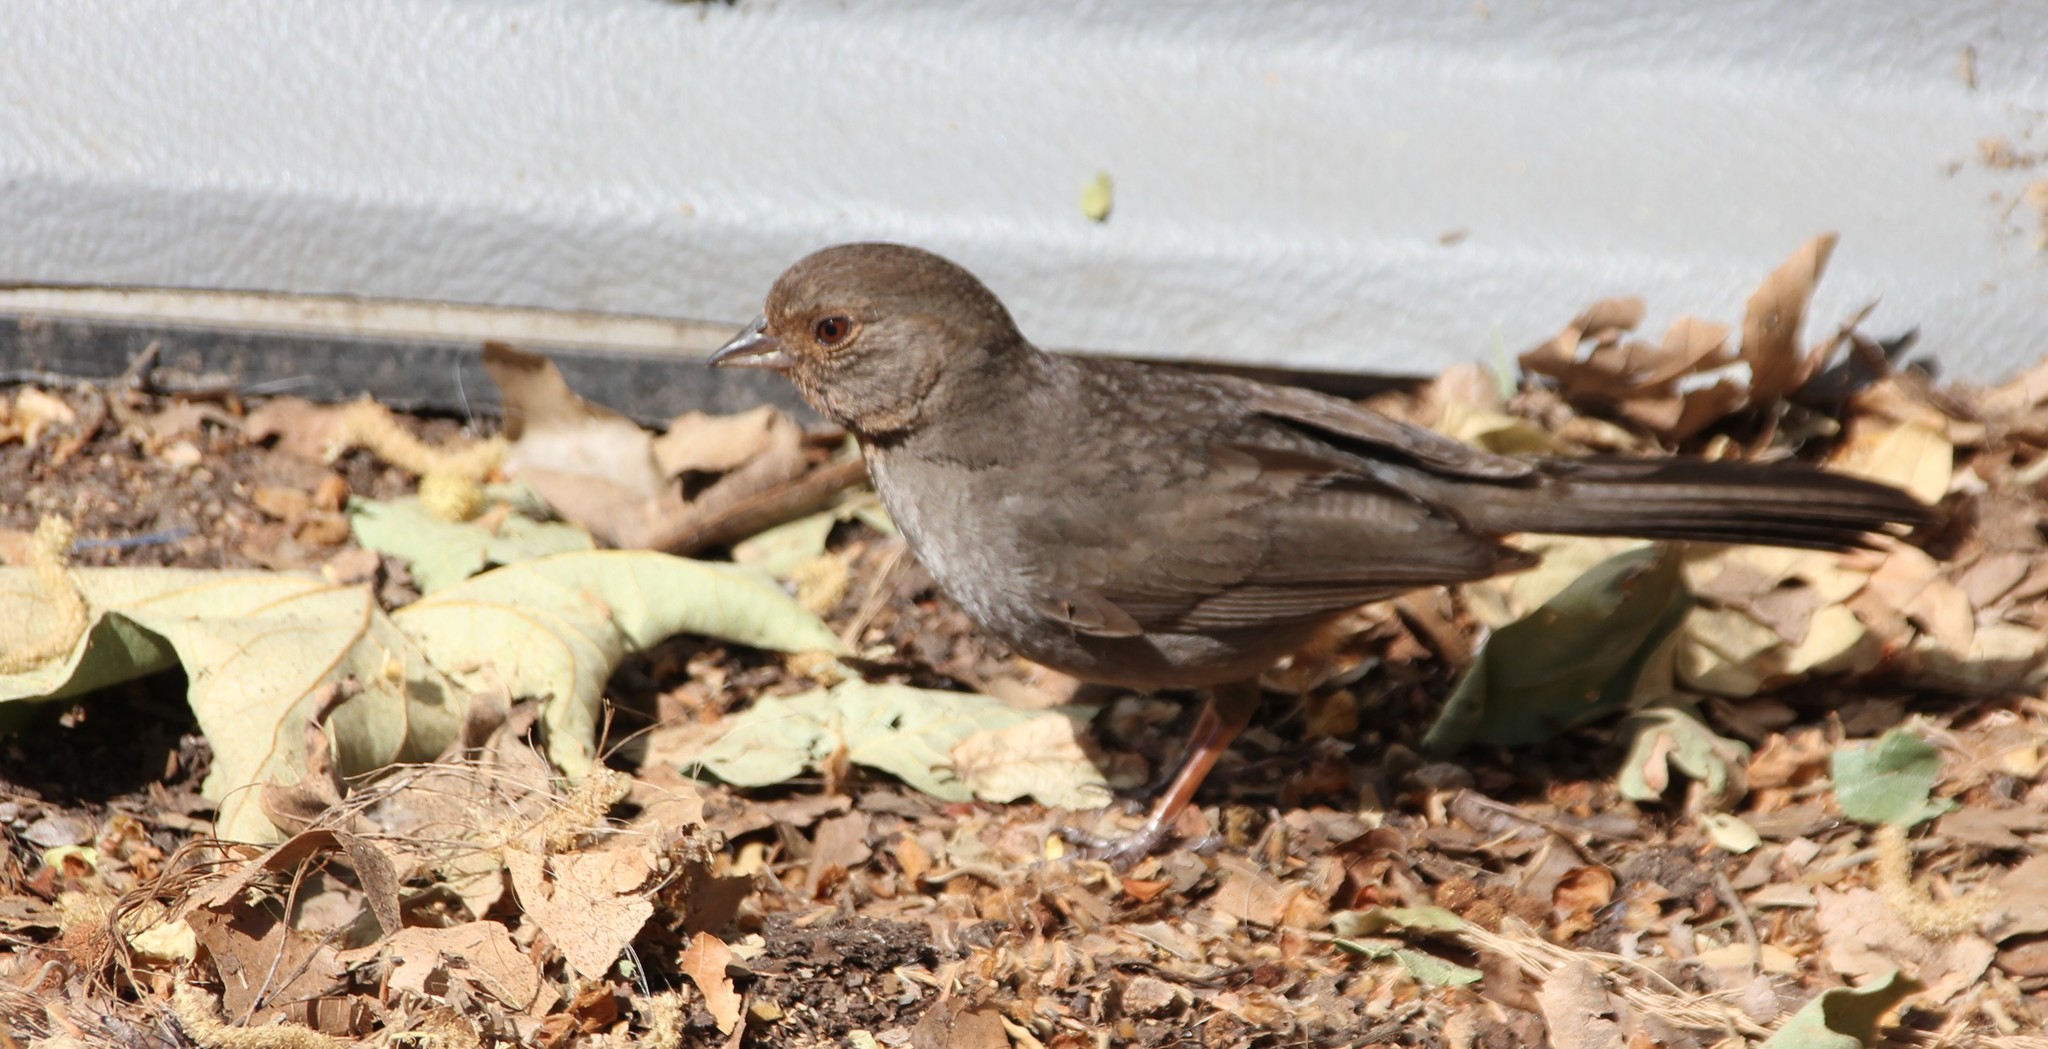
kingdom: Animalia
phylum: Chordata
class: Aves
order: Passeriformes
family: Passerellidae
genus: Melozone
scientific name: Melozone crissalis
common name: California towhee
